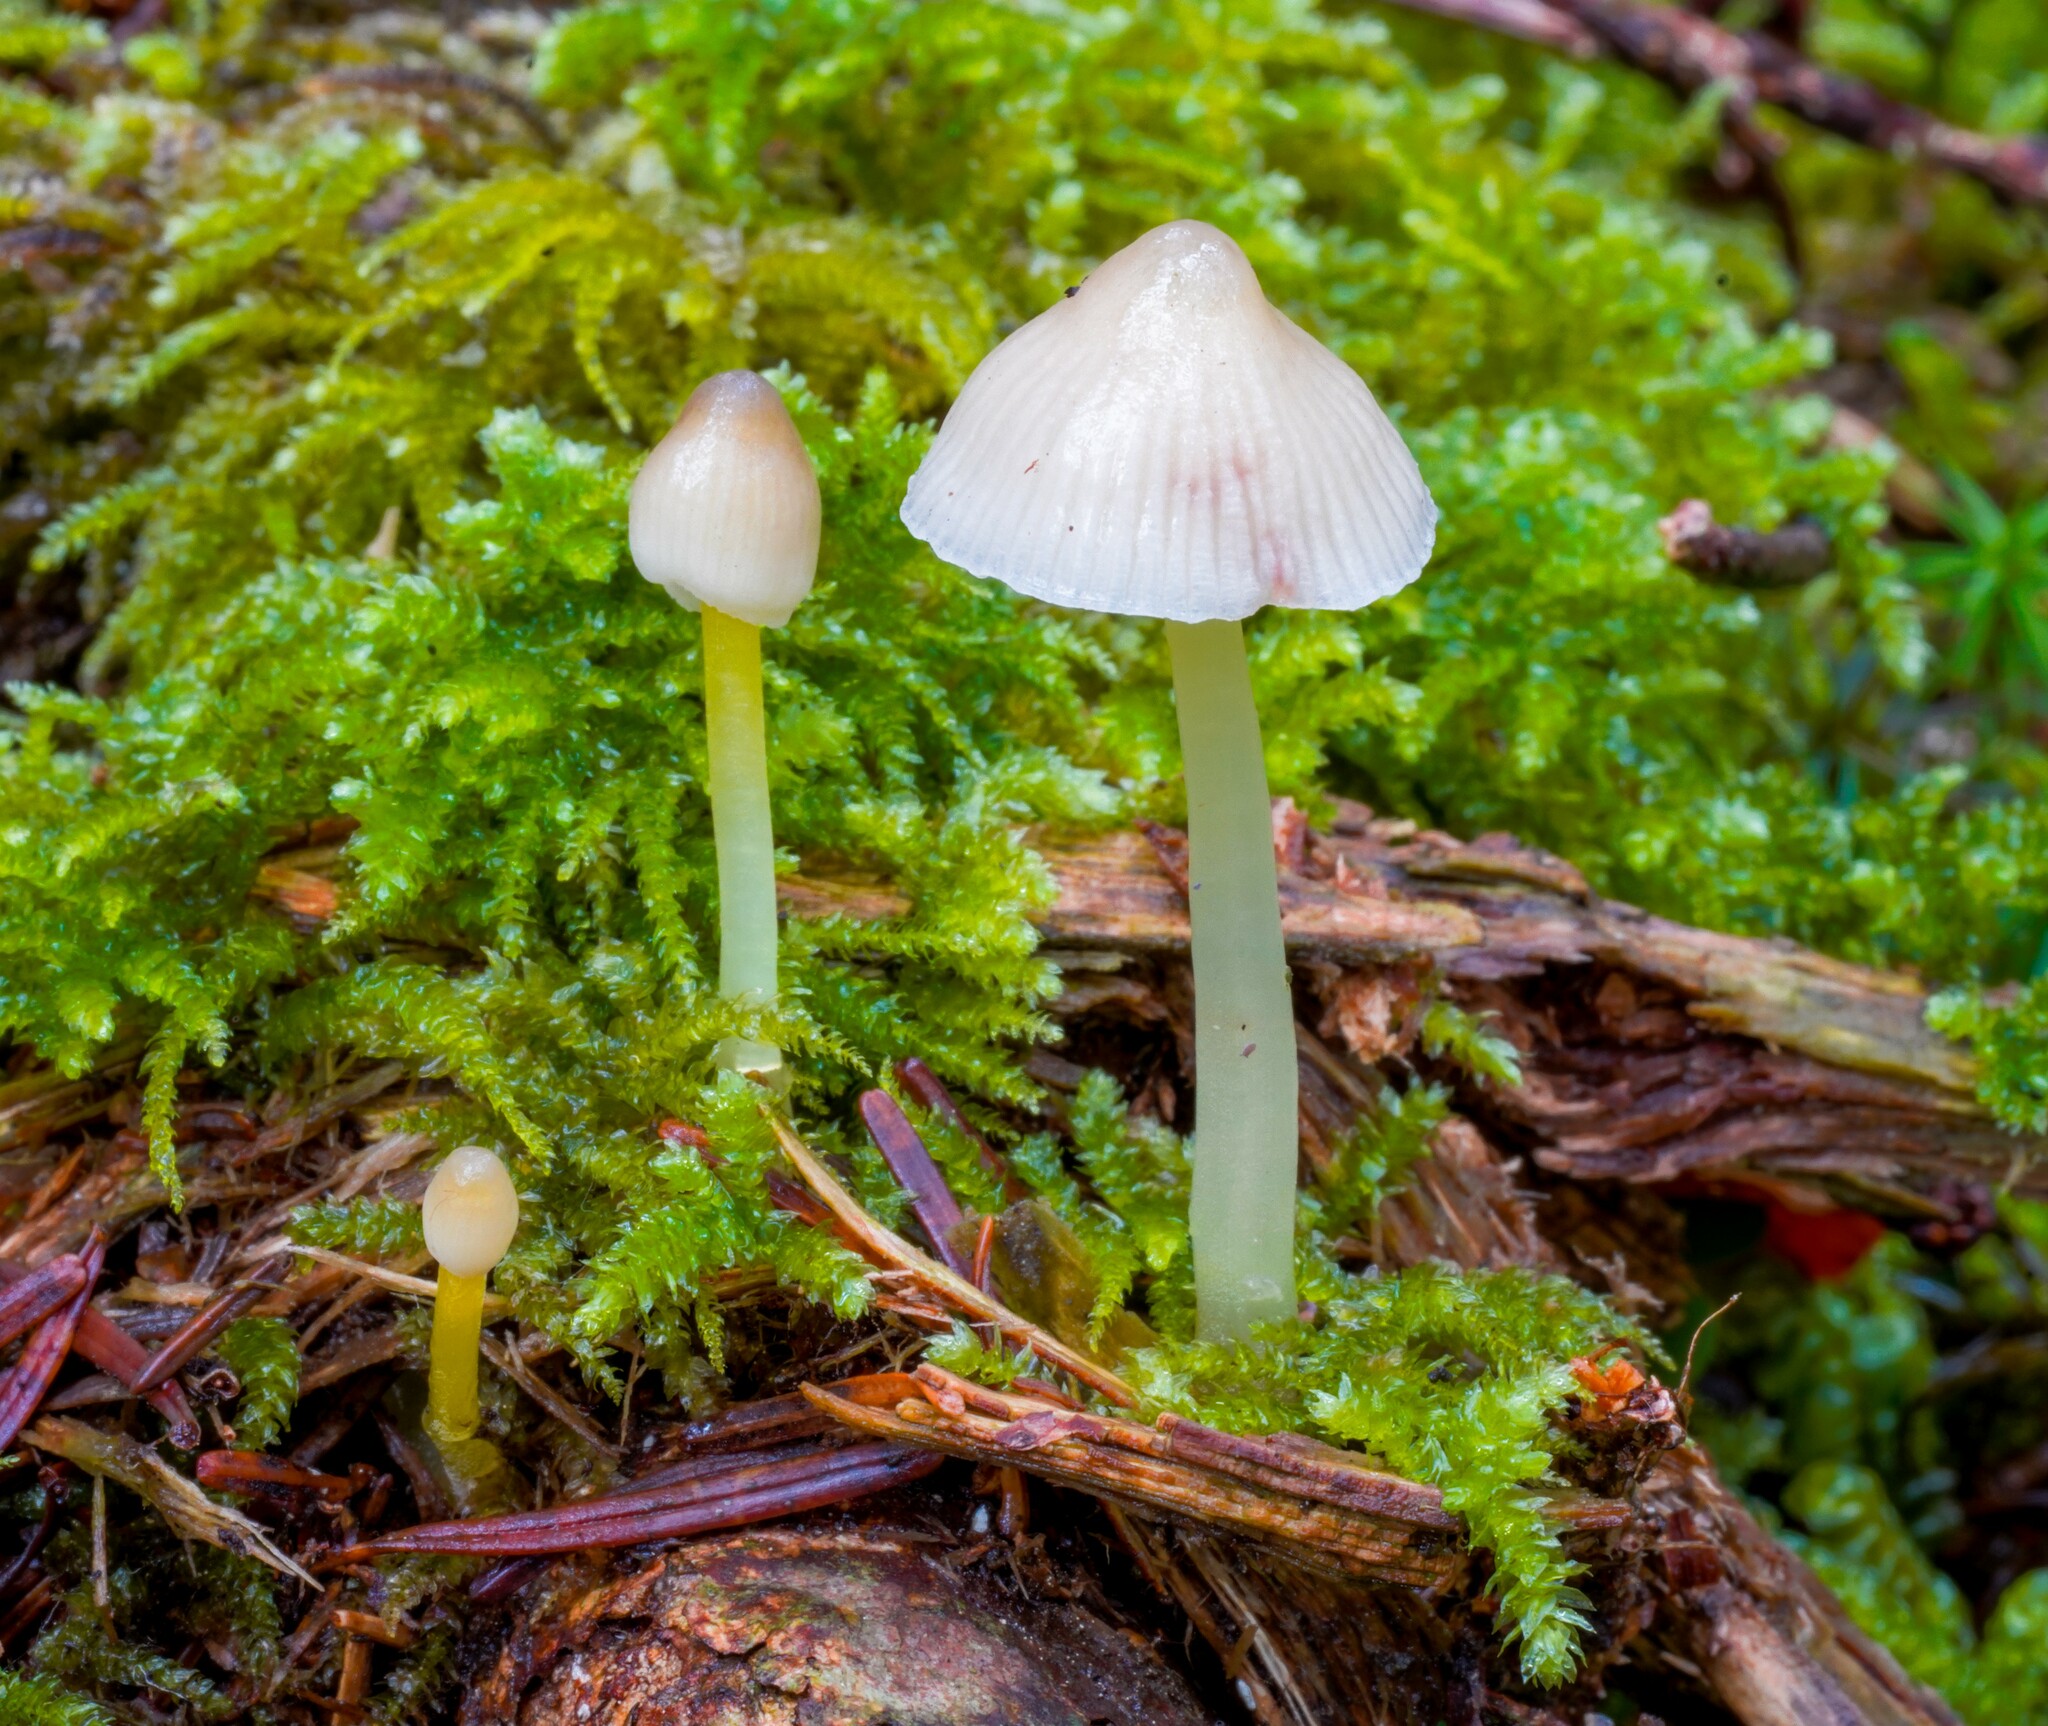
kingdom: Fungi
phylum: Basidiomycota
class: Agaricomycetes
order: Agaricales
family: Mycenaceae
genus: Mycena
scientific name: Mycena epipterygia
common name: Yellowleg bonnet
